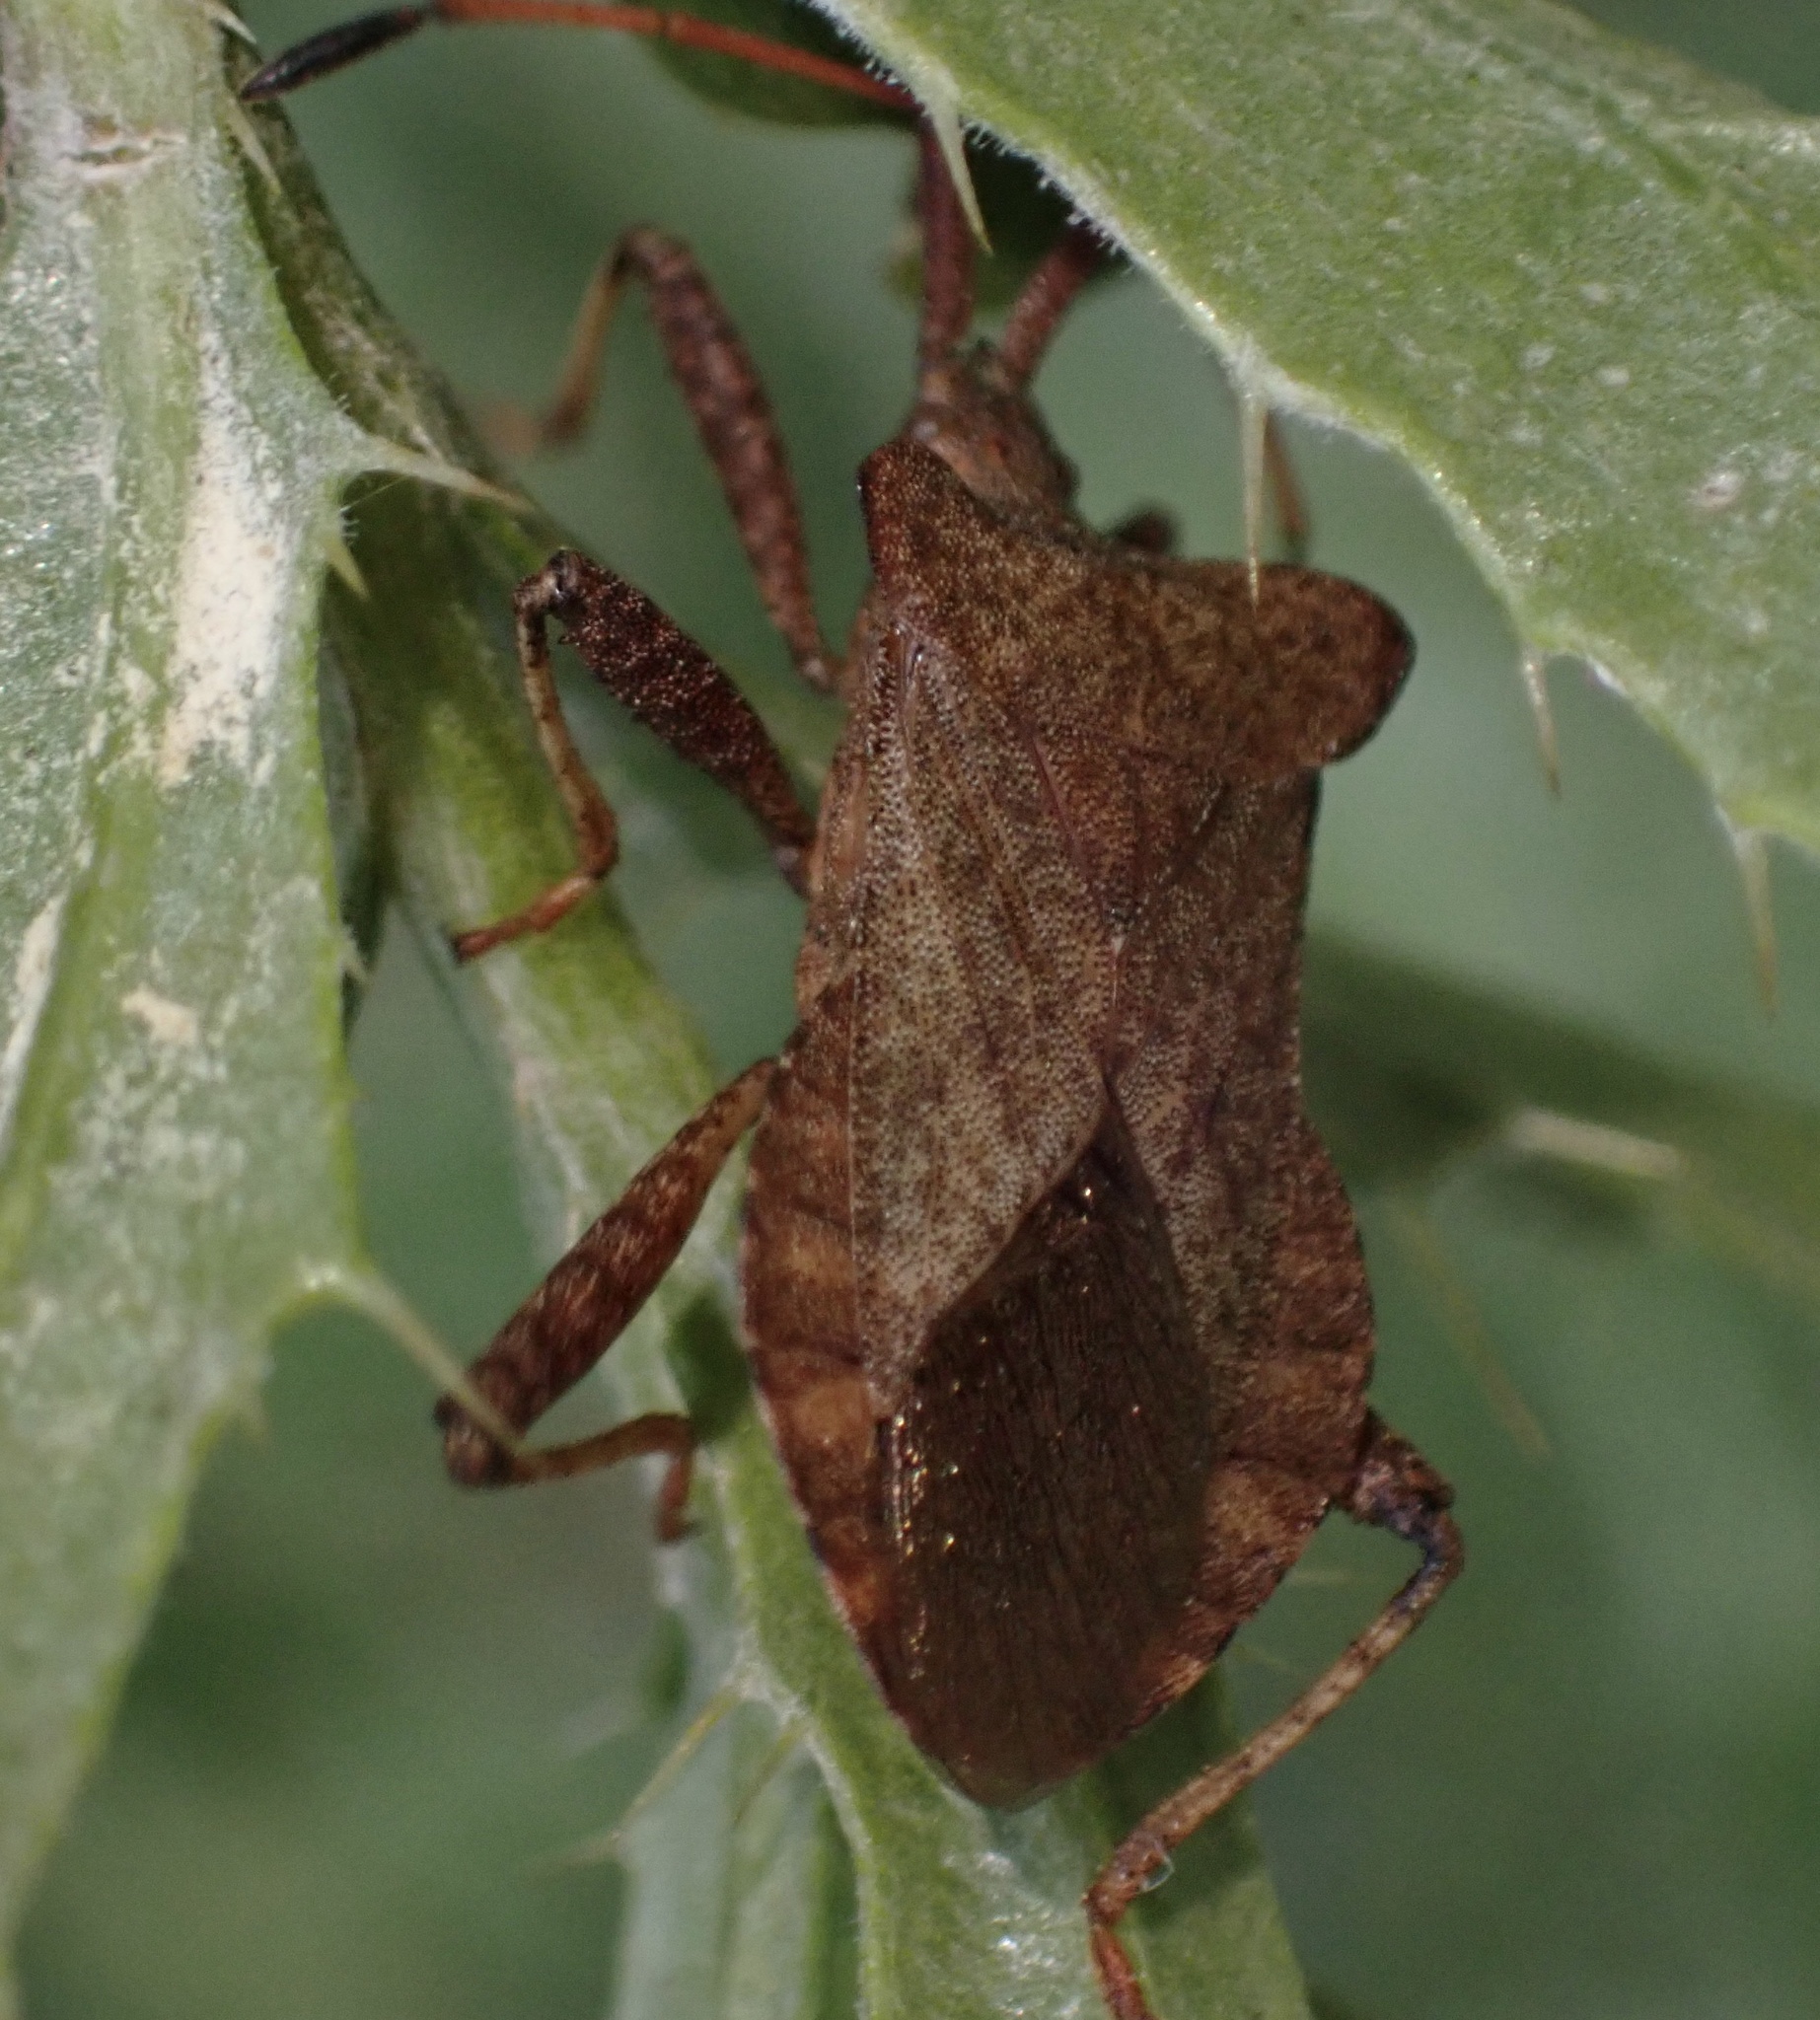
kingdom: Animalia
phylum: Arthropoda
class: Insecta
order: Hemiptera
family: Coreidae
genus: Coreus
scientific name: Coreus marginatus
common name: Dock bug
